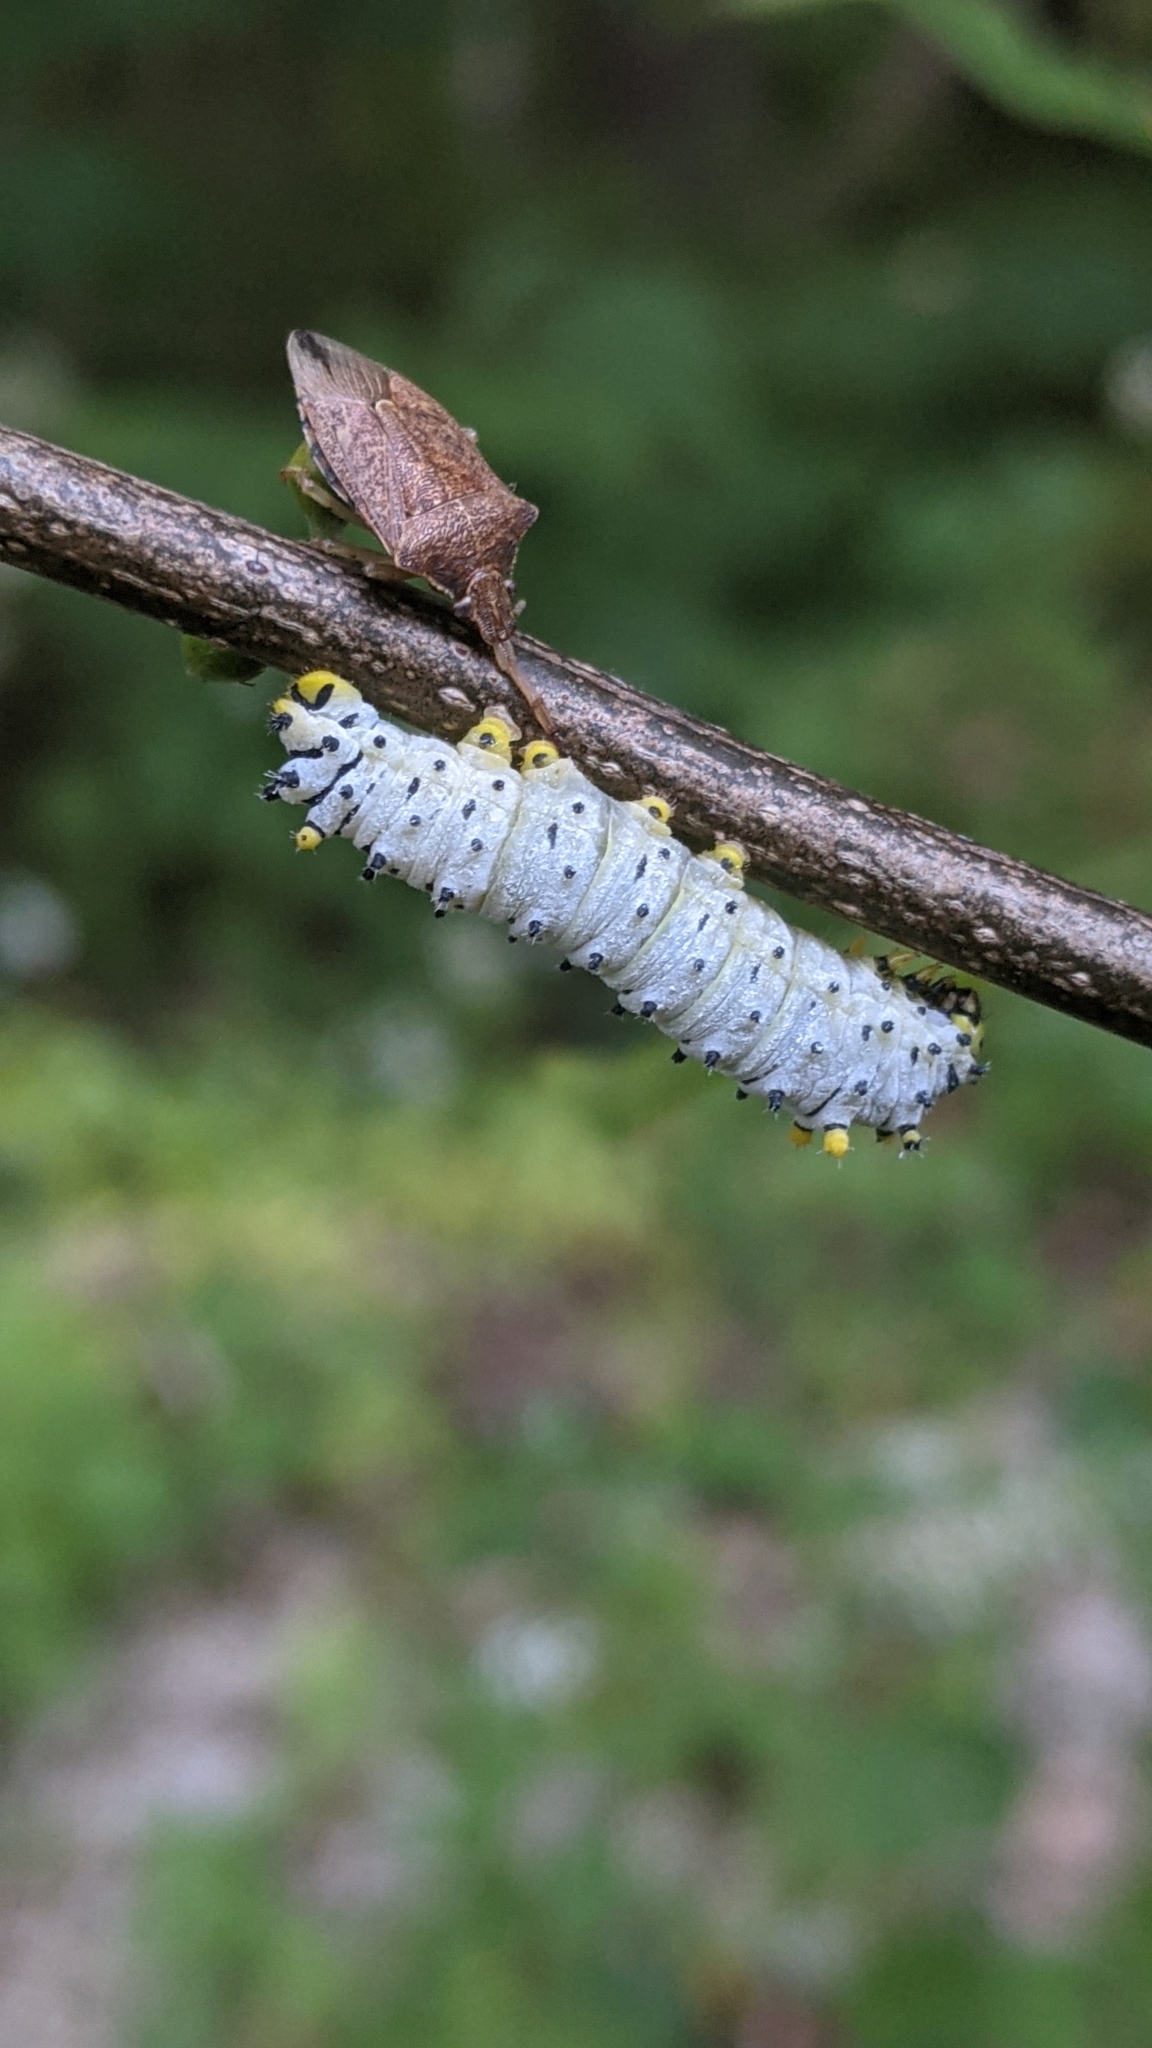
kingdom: Animalia
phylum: Arthropoda
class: Insecta
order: Lepidoptera
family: Saturniidae
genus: Callosamia
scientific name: Callosamia promethea
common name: Promethea silkmoth
